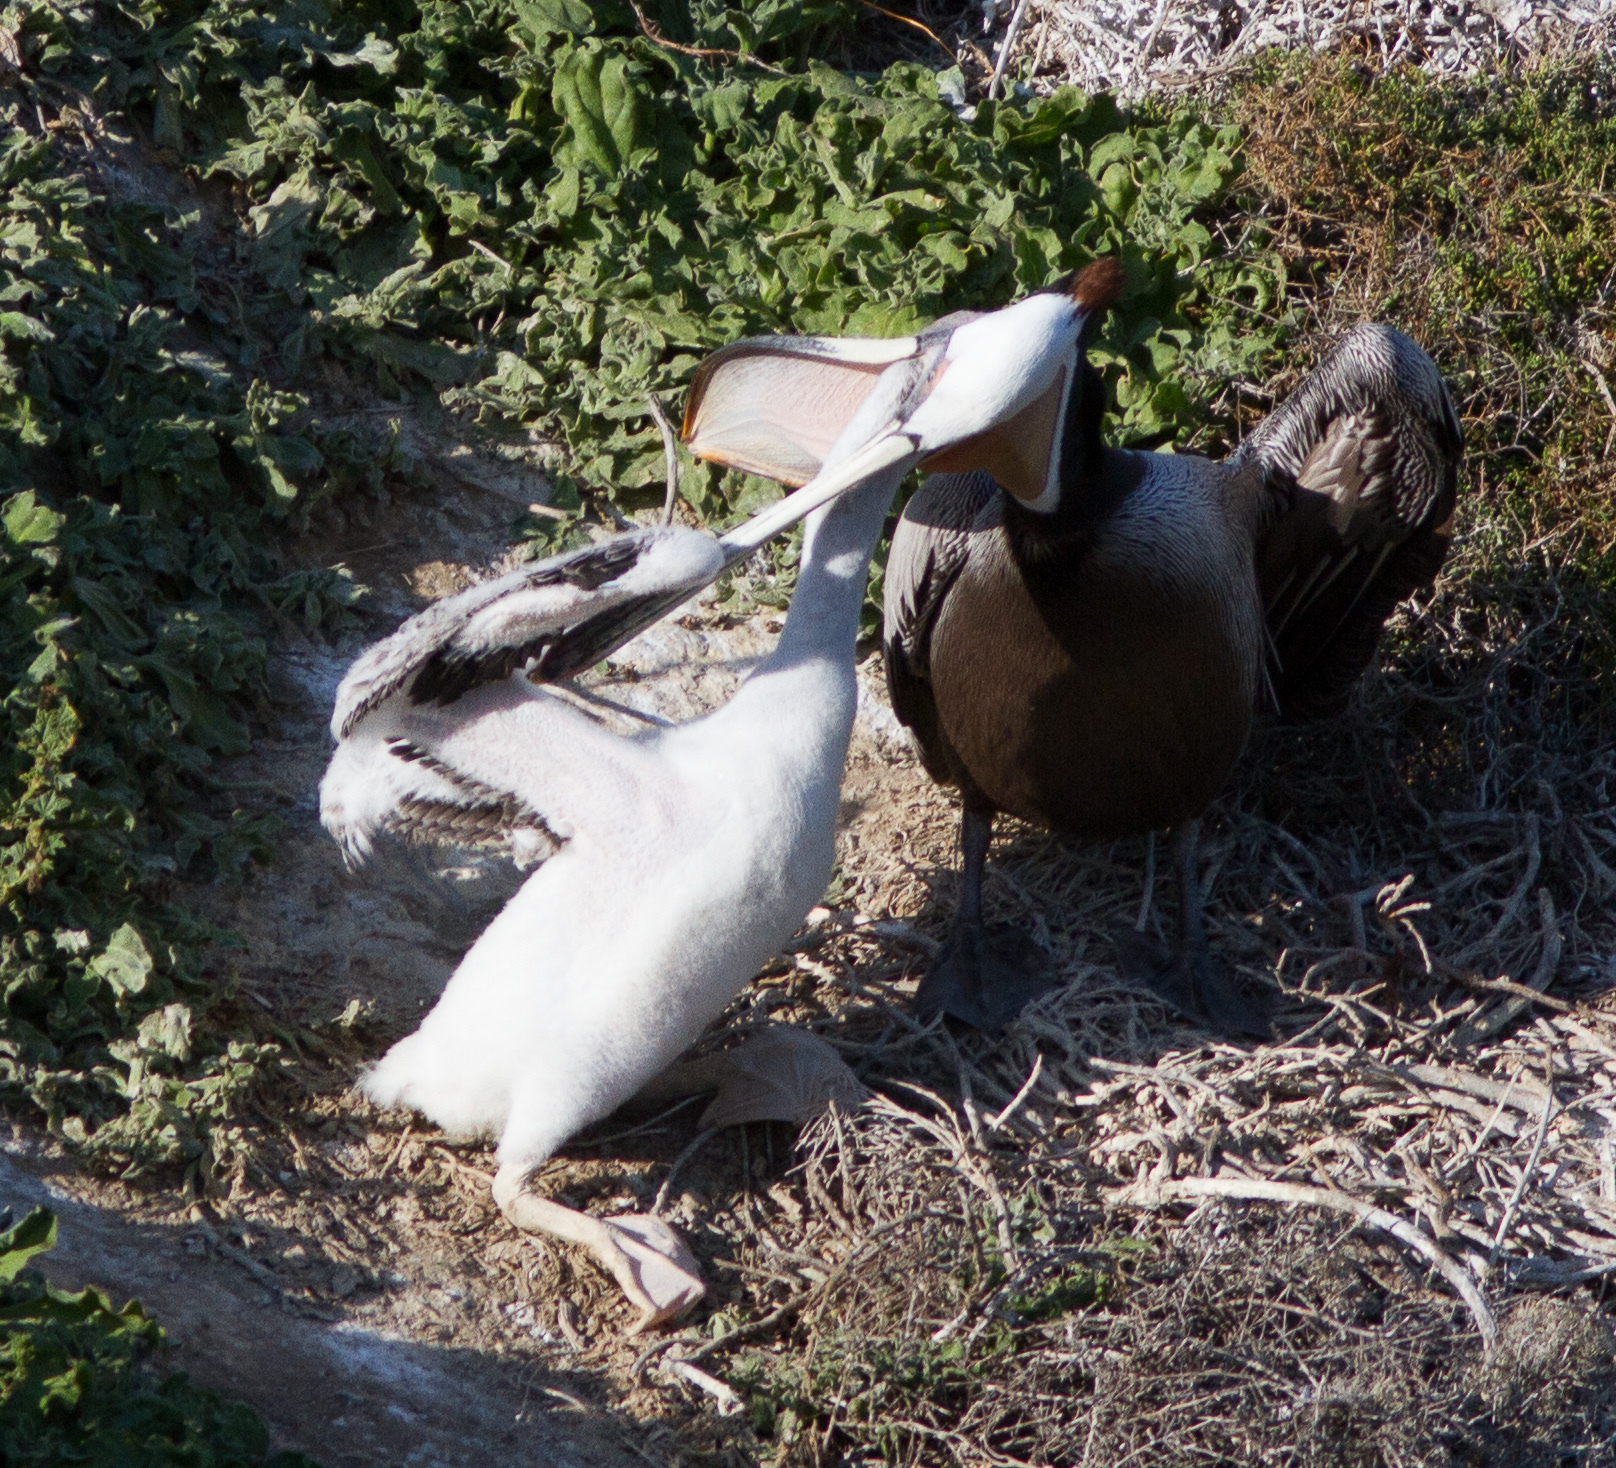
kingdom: Animalia
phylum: Chordata
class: Aves
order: Pelecaniformes
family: Pelecanidae
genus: Pelecanus
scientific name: Pelecanus occidentalis
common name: Brown pelican
